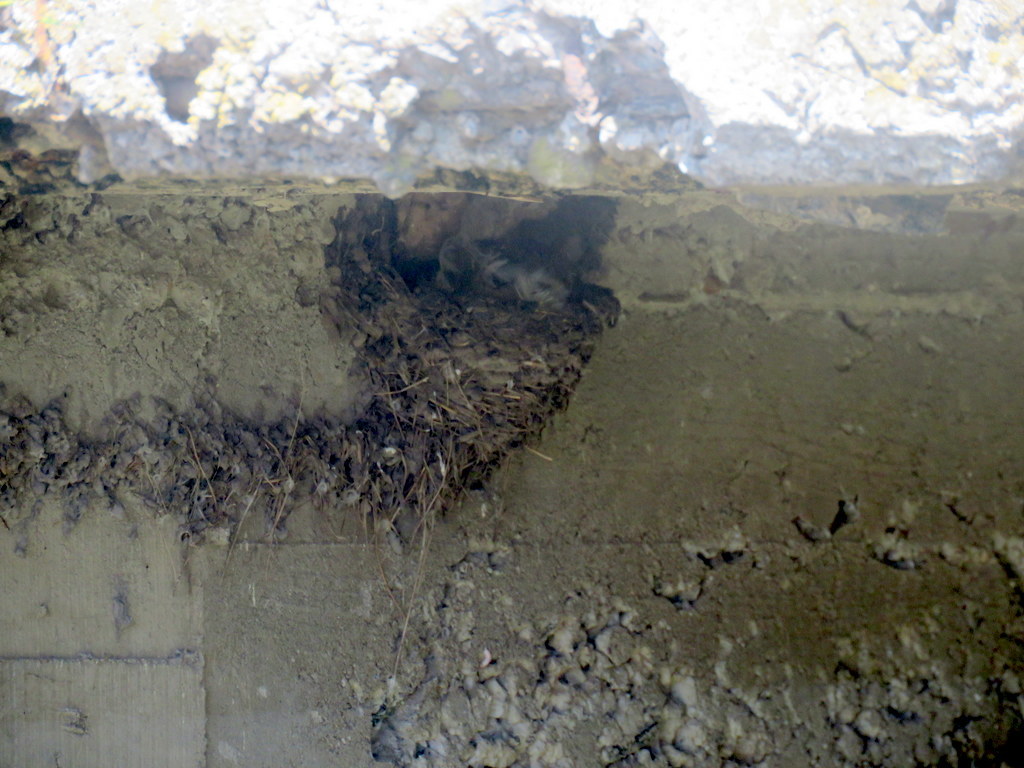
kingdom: Animalia
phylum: Chordata
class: Aves
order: Passeriformes
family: Hirundinidae
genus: Hirundo
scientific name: Hirundo rustica
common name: Barn swallow
